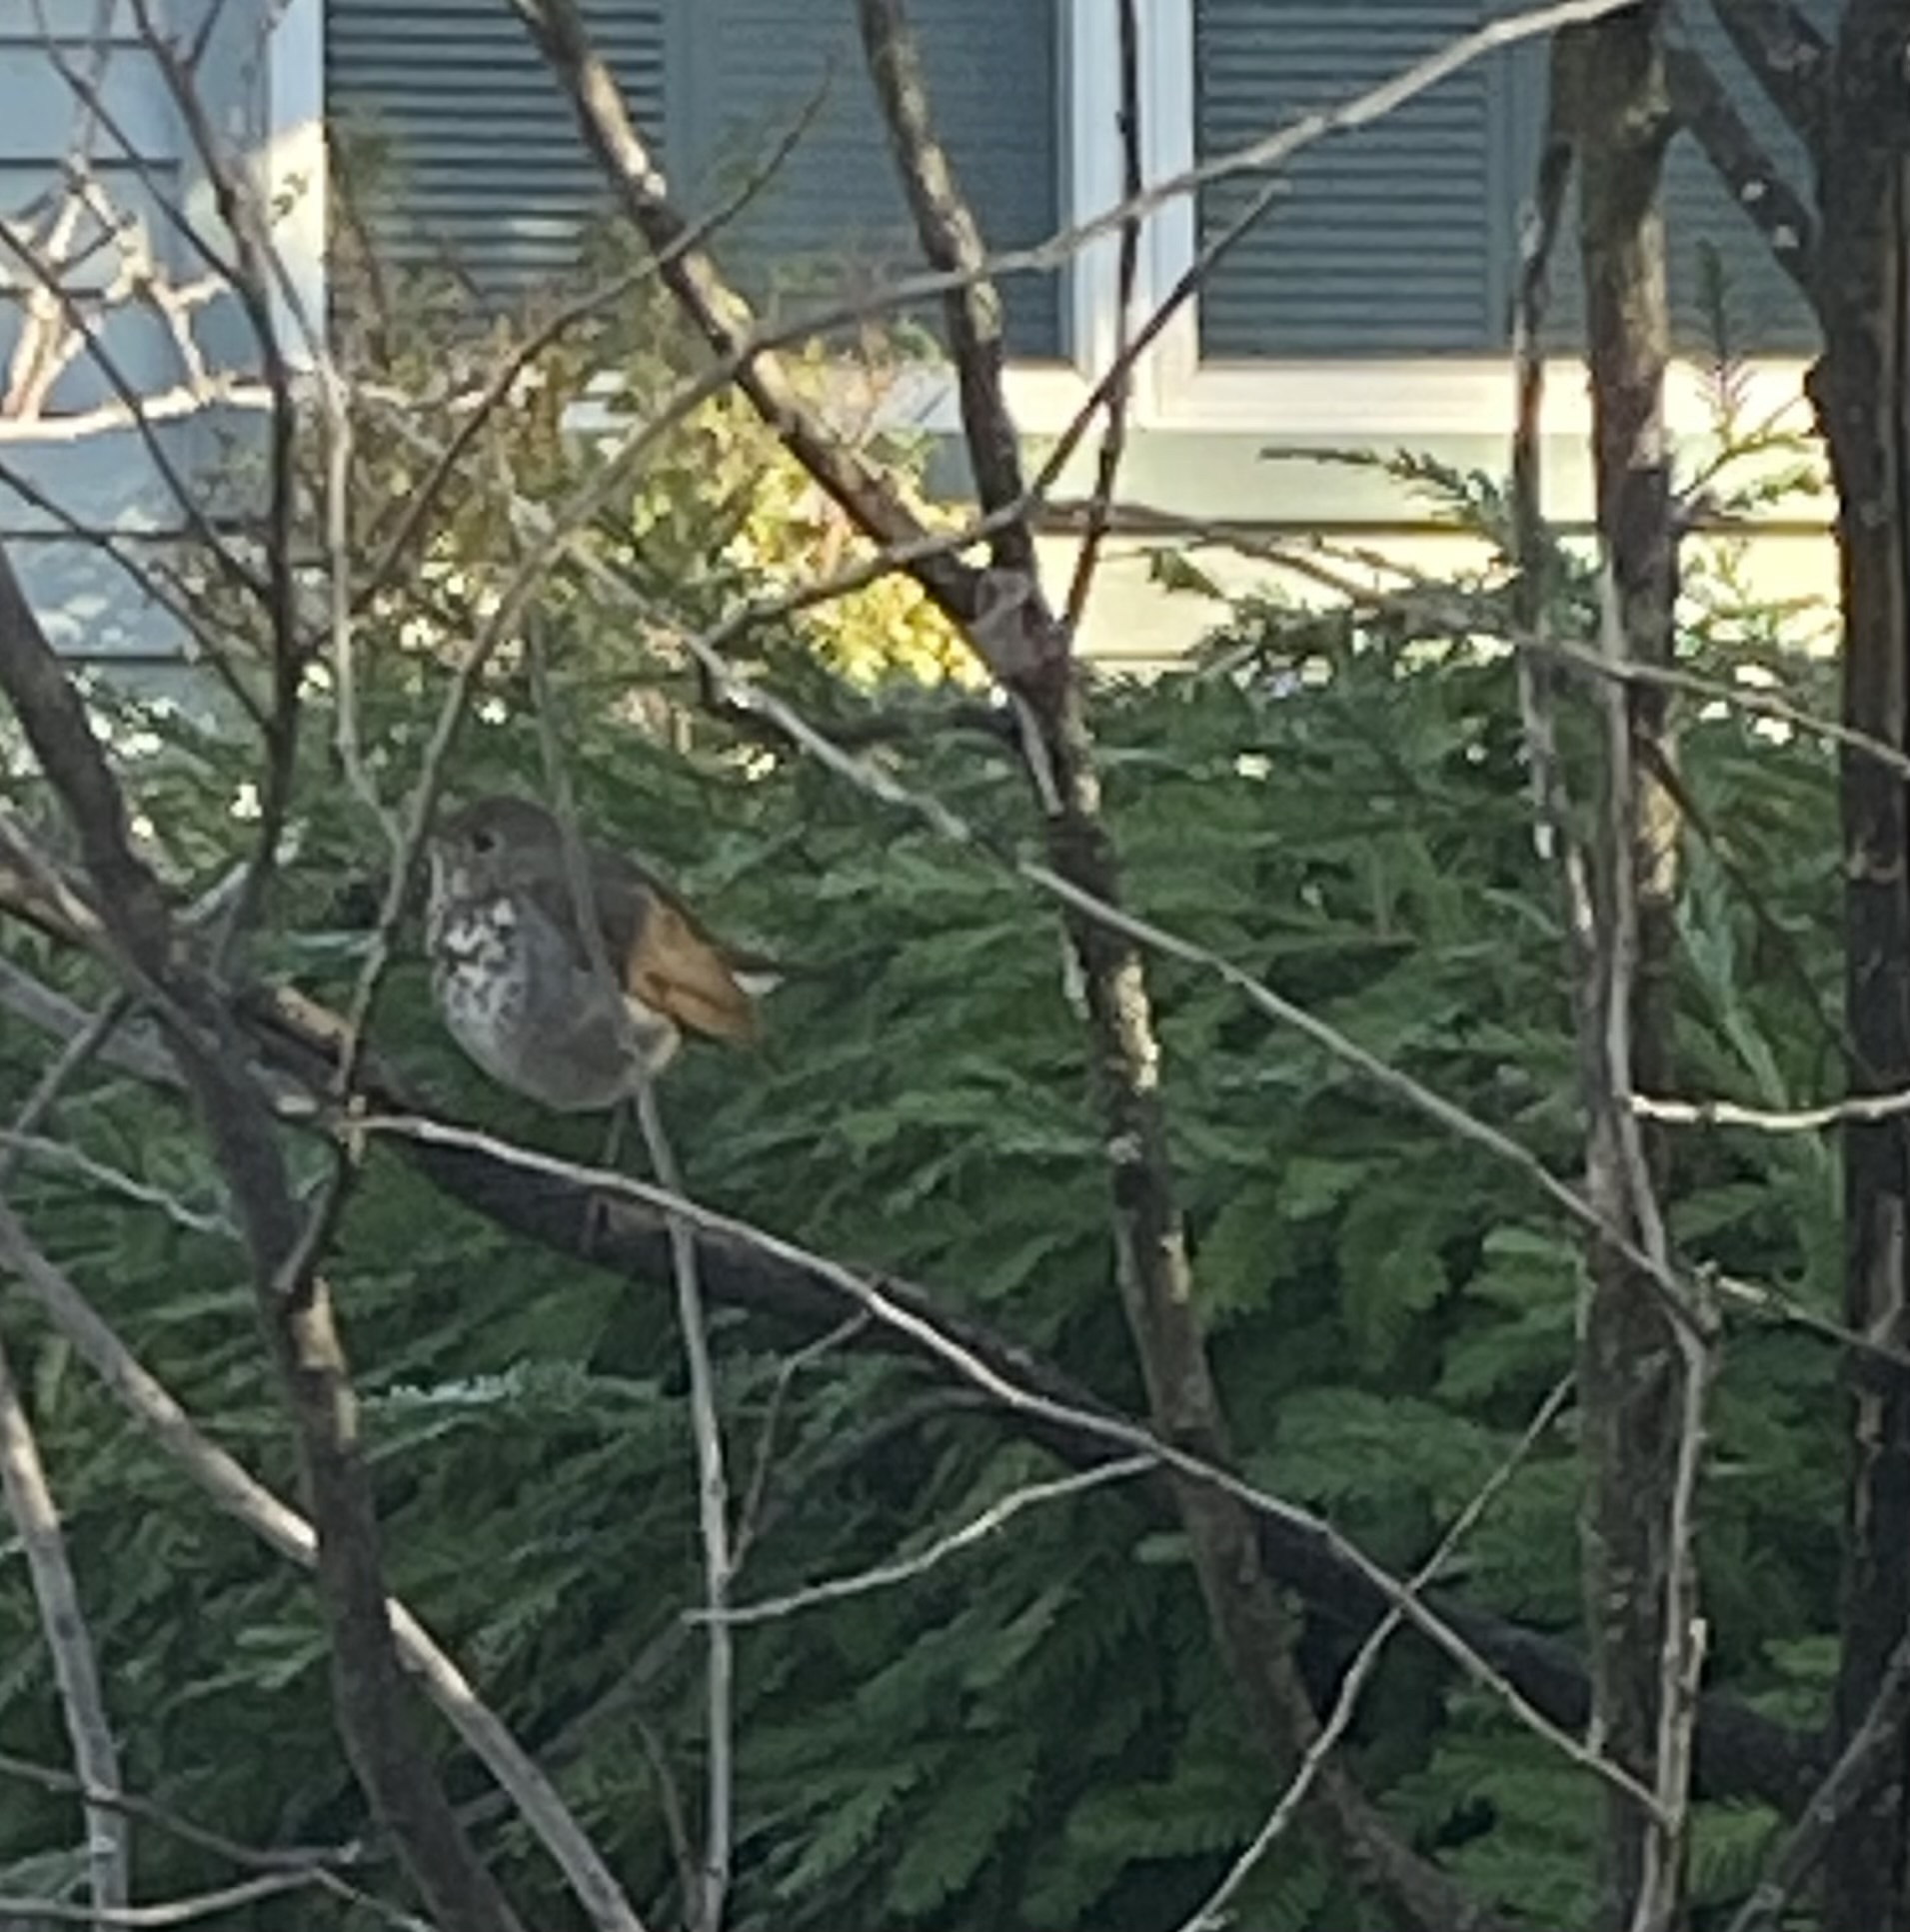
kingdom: Animalia
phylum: Chordata
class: Aves
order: Passeriformes
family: Turdidae
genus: Catharus
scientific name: Catharus guttatus
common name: Hermit thrush
